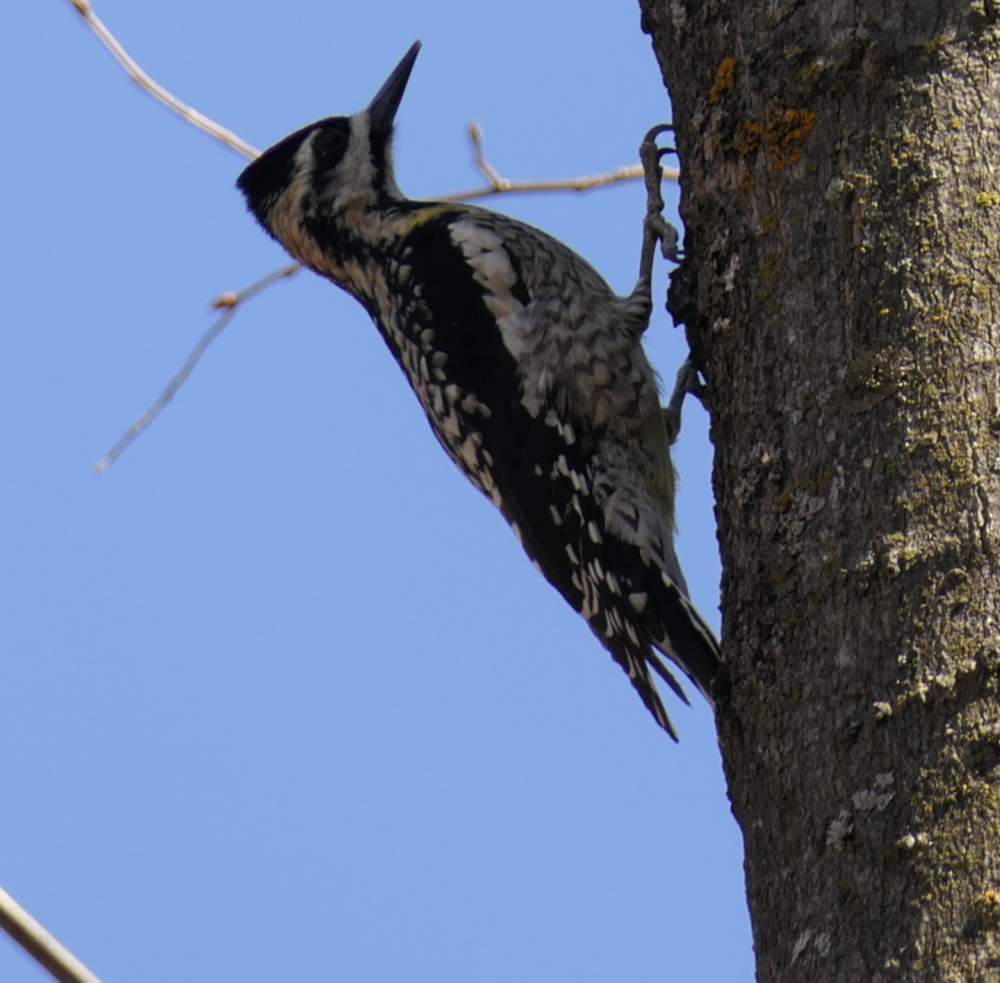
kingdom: Animalia
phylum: Chordata
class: Aves
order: Piciformes
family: Picidae
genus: Sphyrapicus
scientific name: Sphyrapicus varius
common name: Yellow-bellied sapsucker
